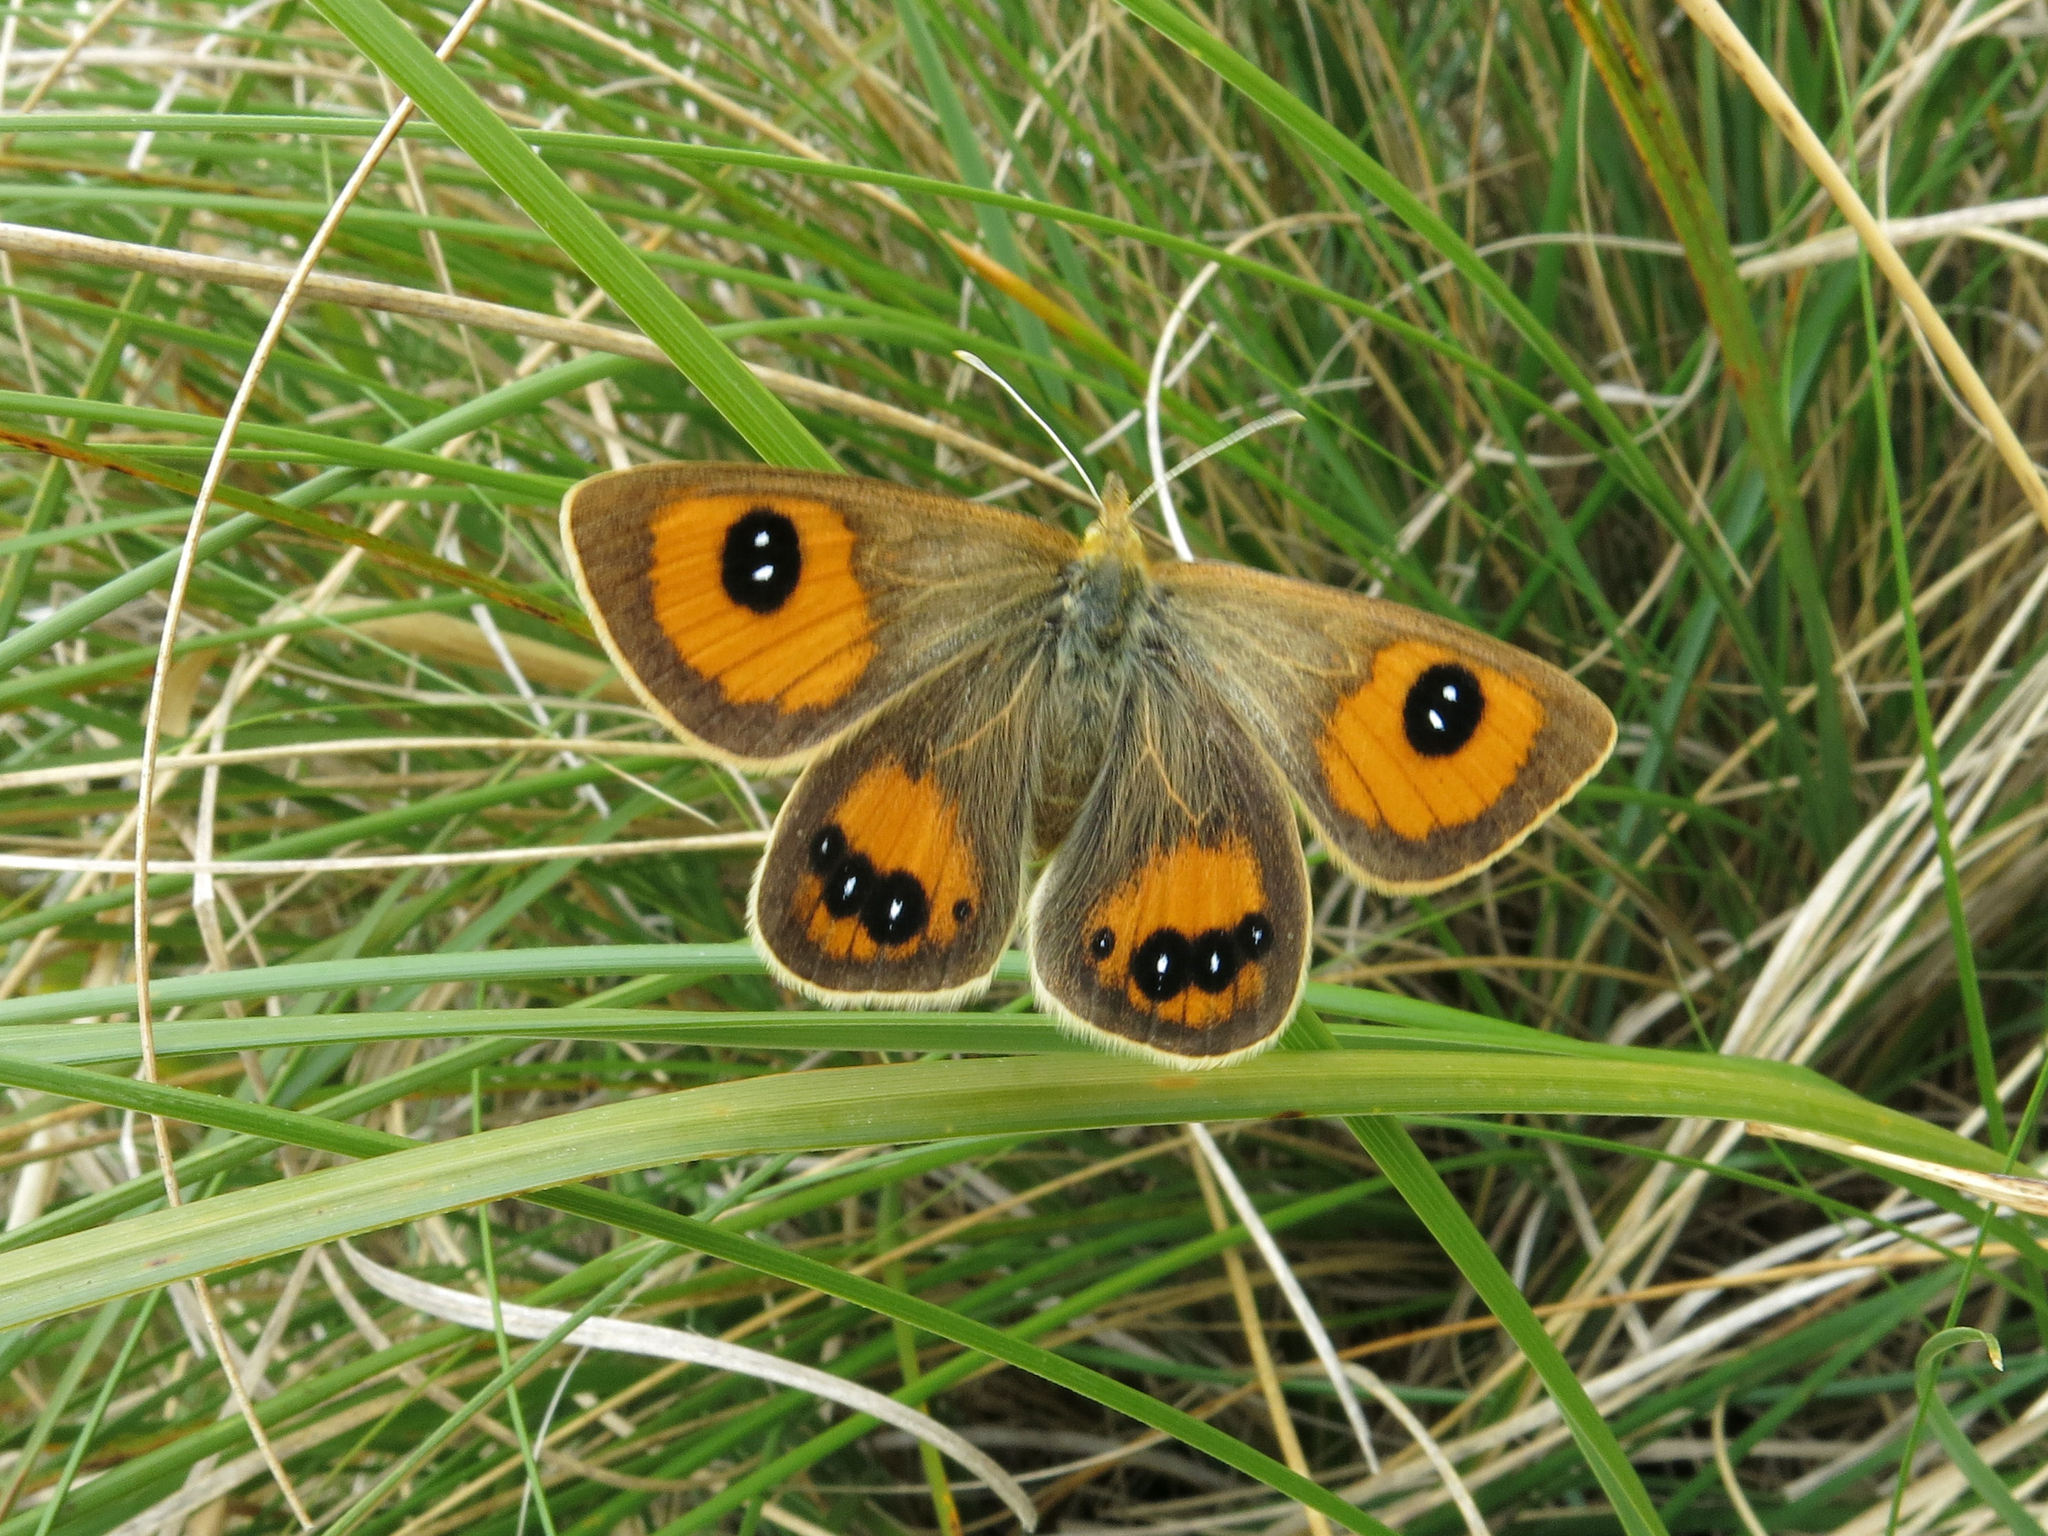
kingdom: Animalia
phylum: Arthropoda
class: Insecta
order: Lepidoptera
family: Nymphalidae
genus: Argyrophenga
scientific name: Argyrophenga antipodum
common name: Common tussock butterfly
